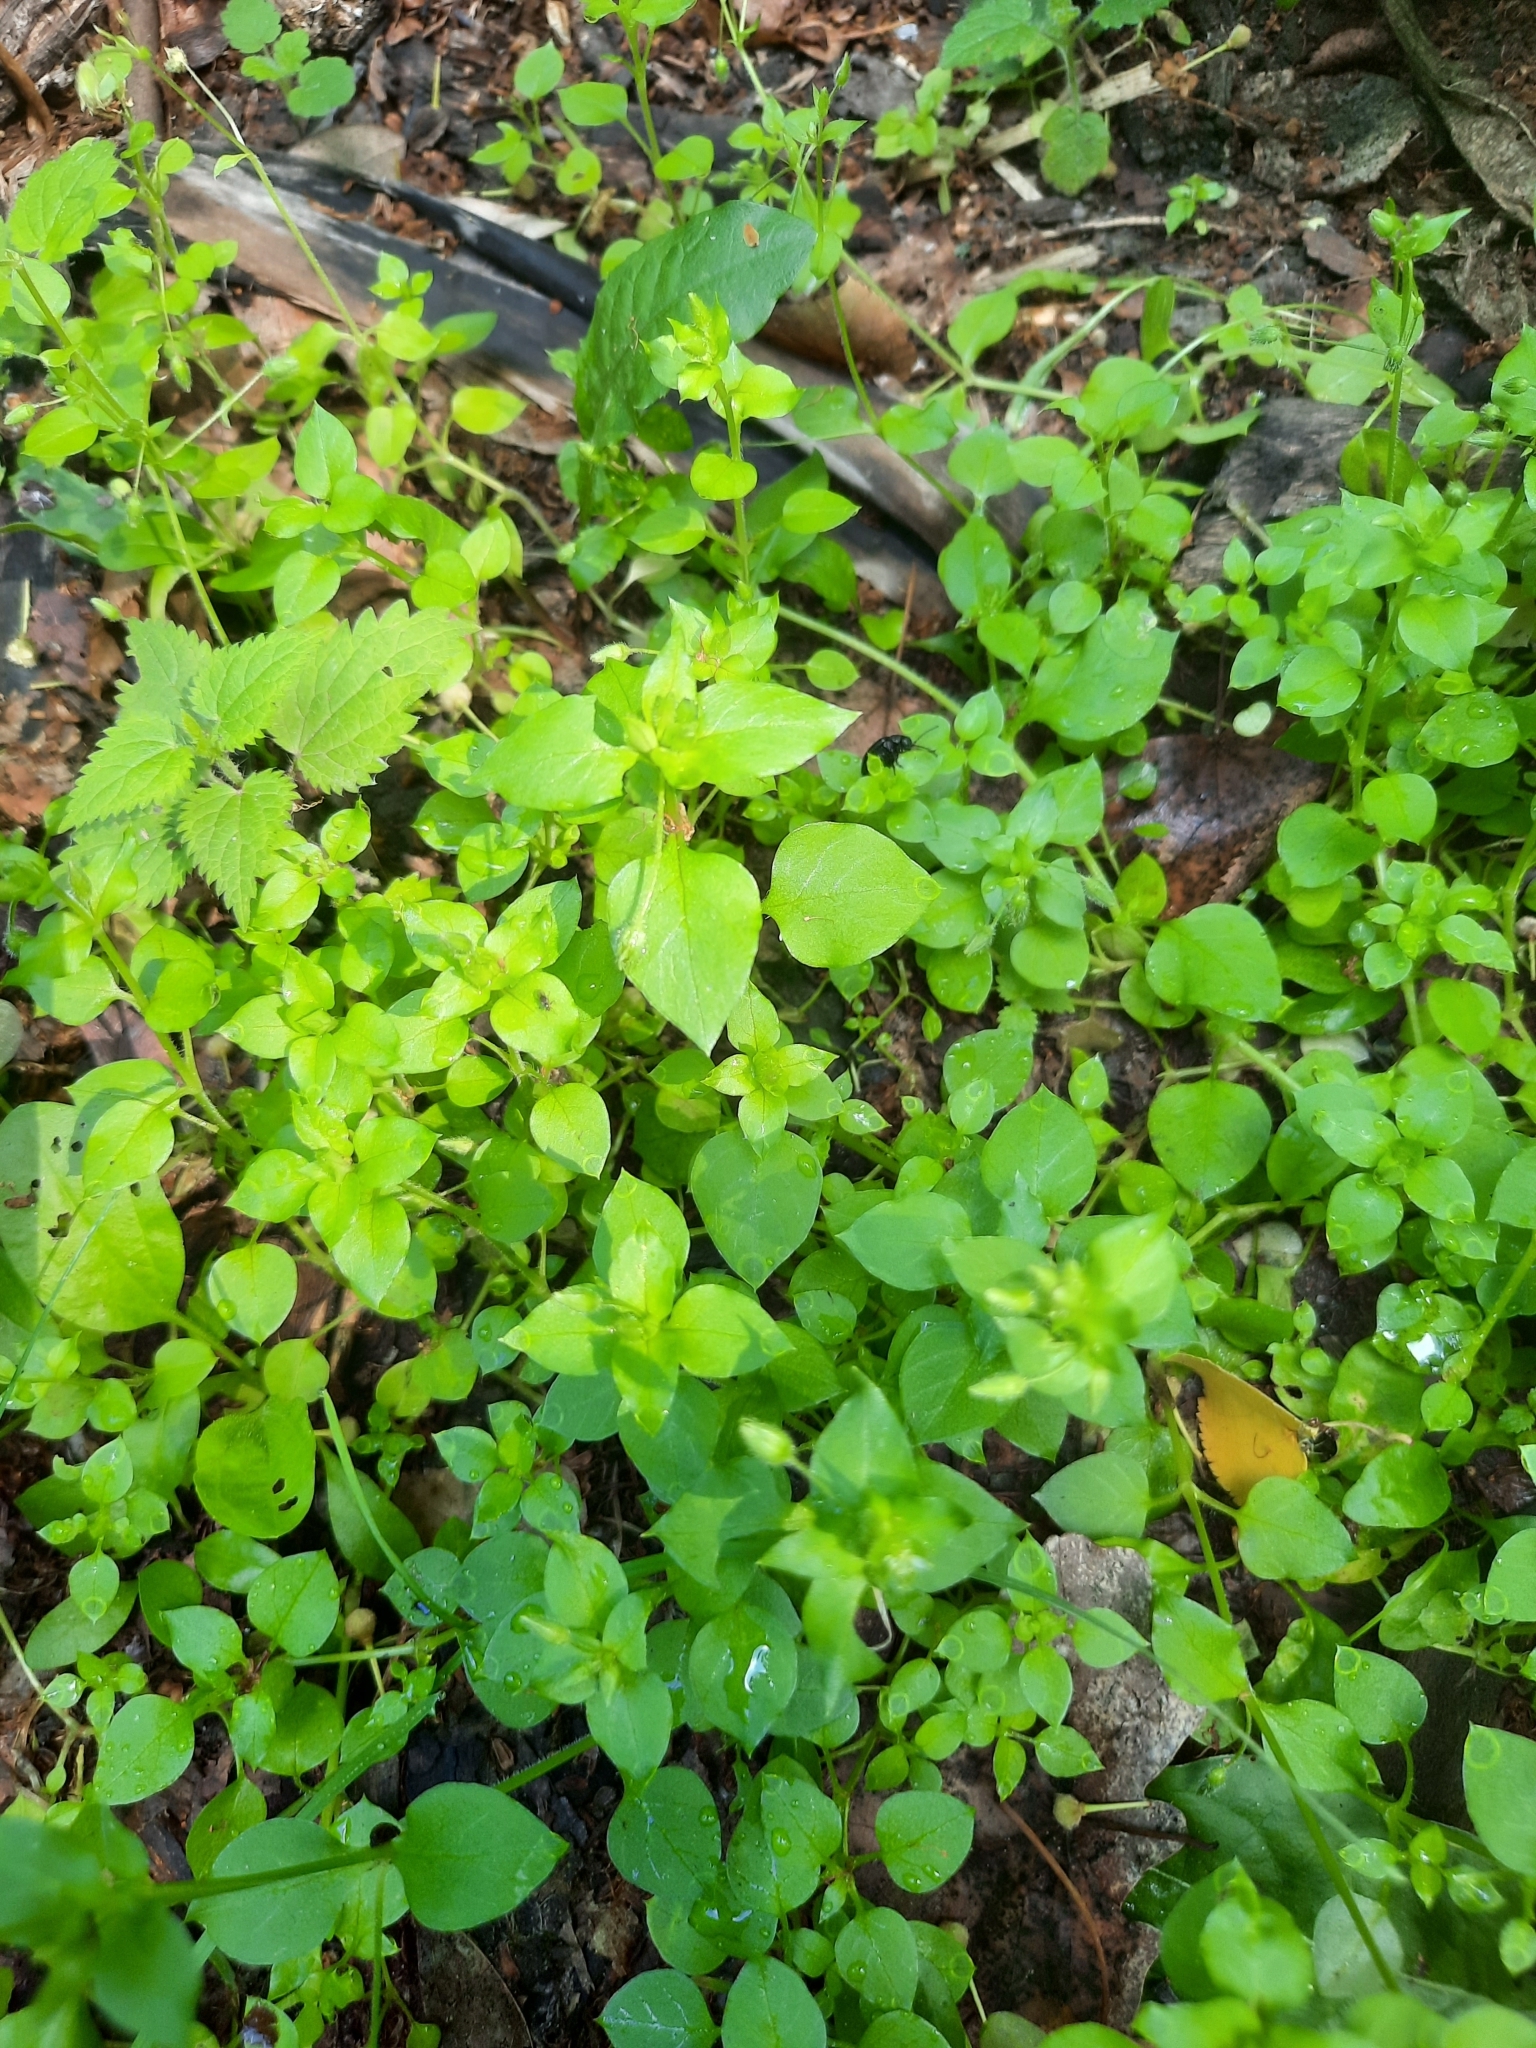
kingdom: Plantae
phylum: Tracheophyta
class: Magnoliopsida
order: Caryophyllales
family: Caryophyllaceae
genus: Stellaria
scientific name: Stellaria media
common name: Common chickweed
